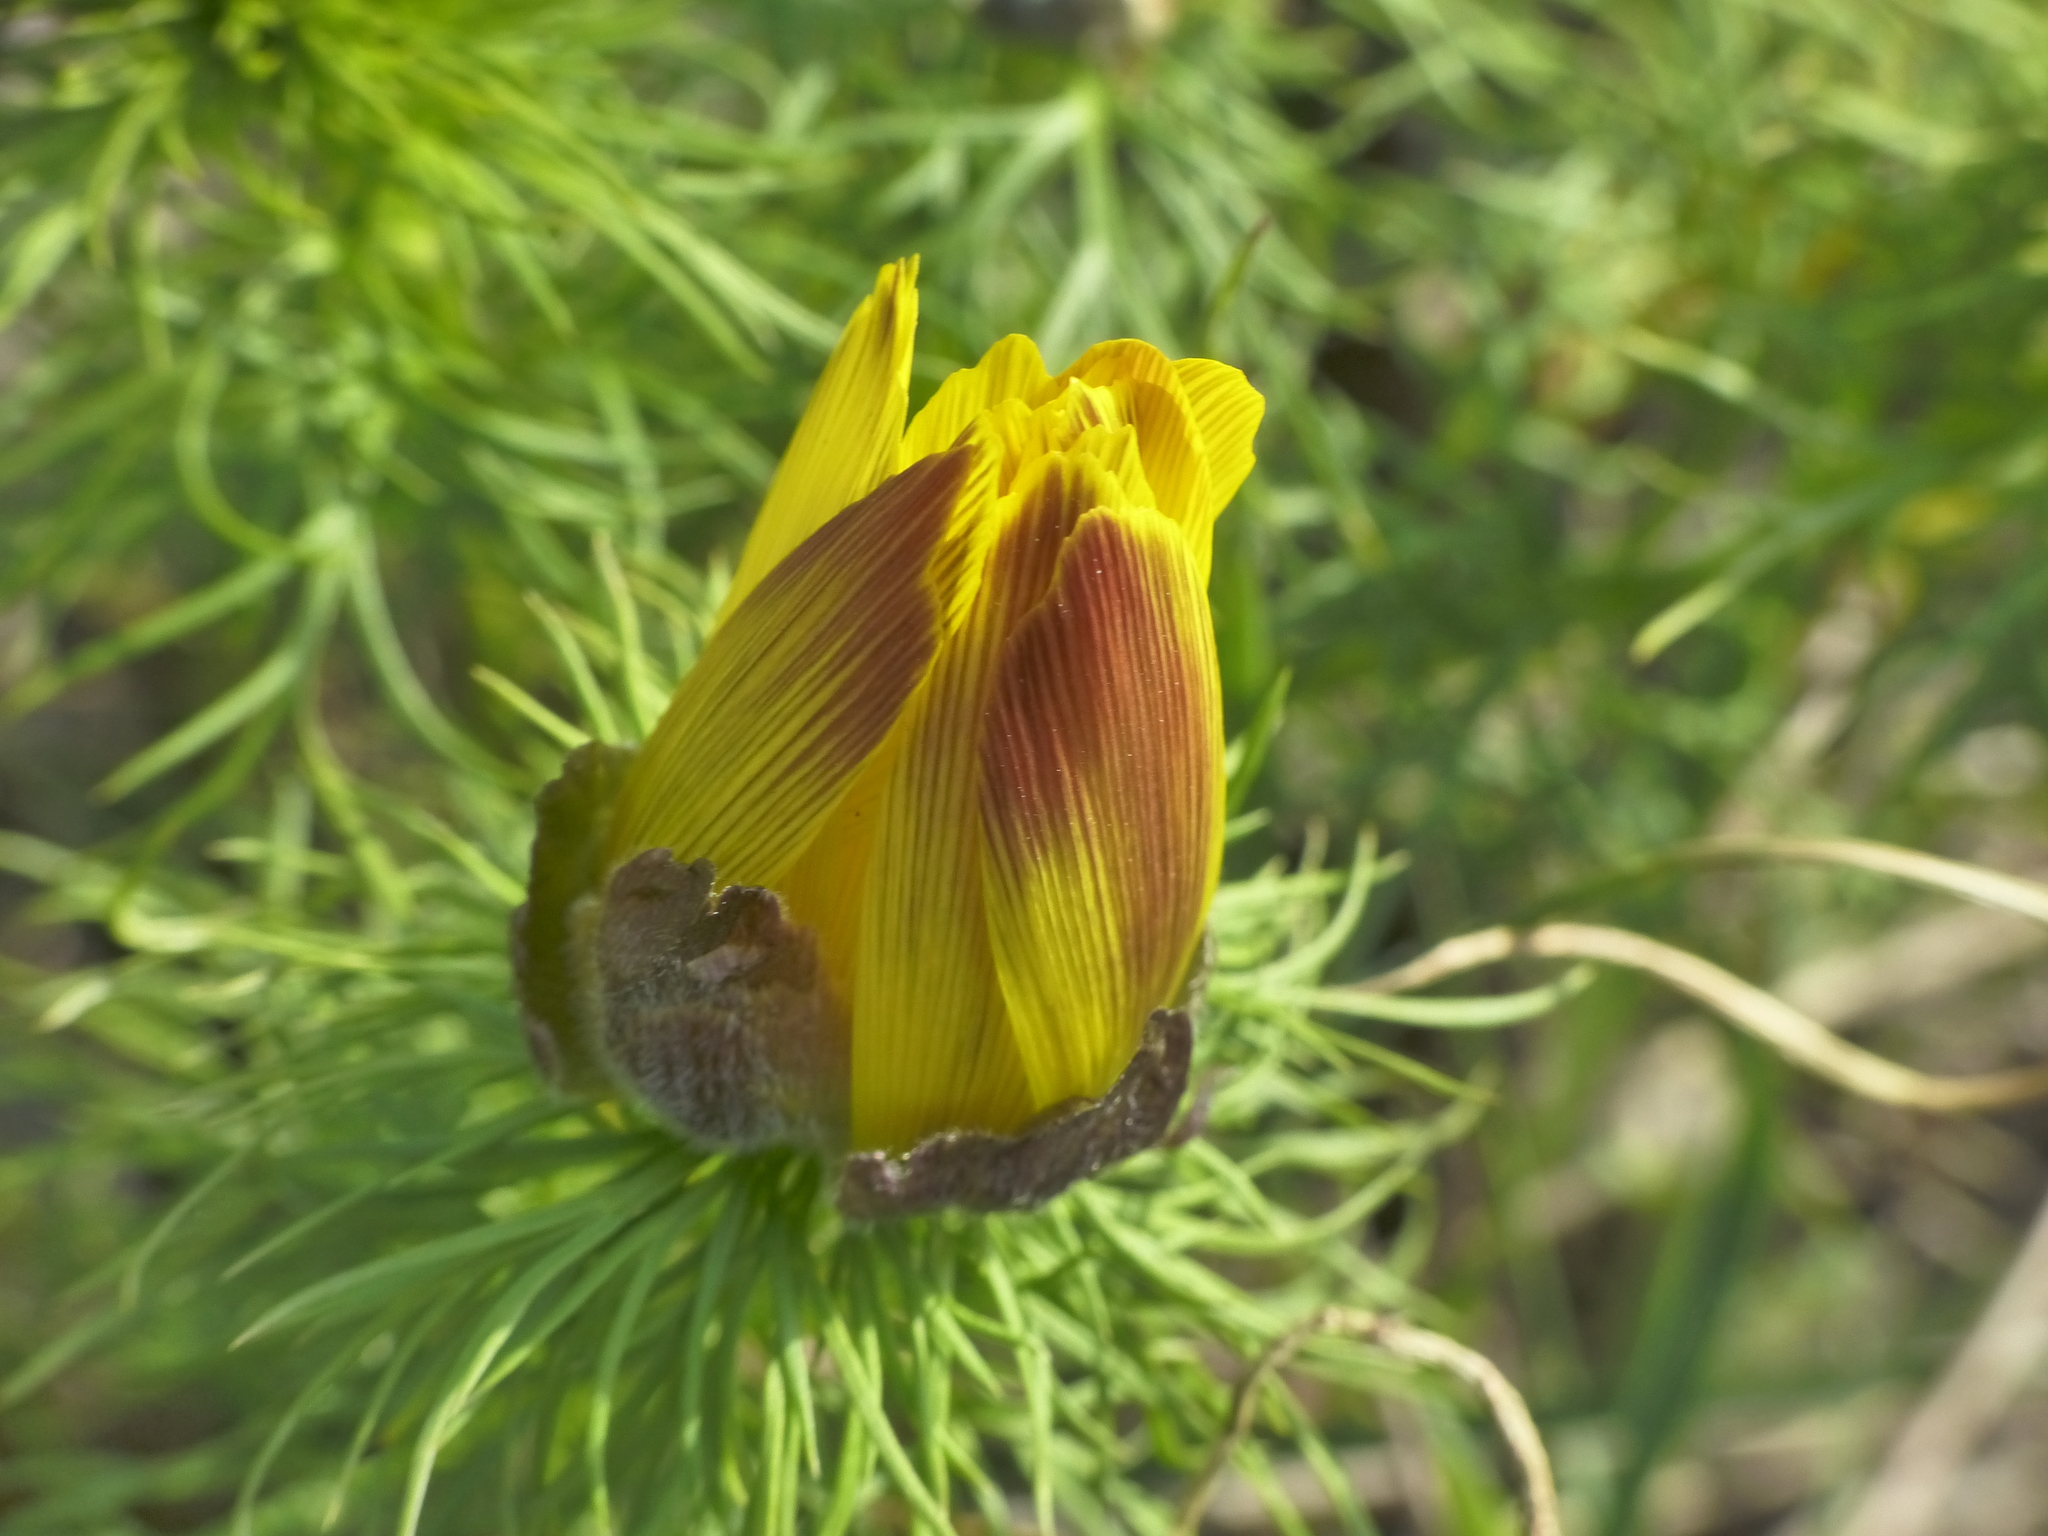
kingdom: Plantae
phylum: Tracheophyta
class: Magnoliopsida
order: Ranunculales
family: Ranunculaceae
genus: Adonis
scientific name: Adonis vernalis
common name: Yellow pheasants-eye
